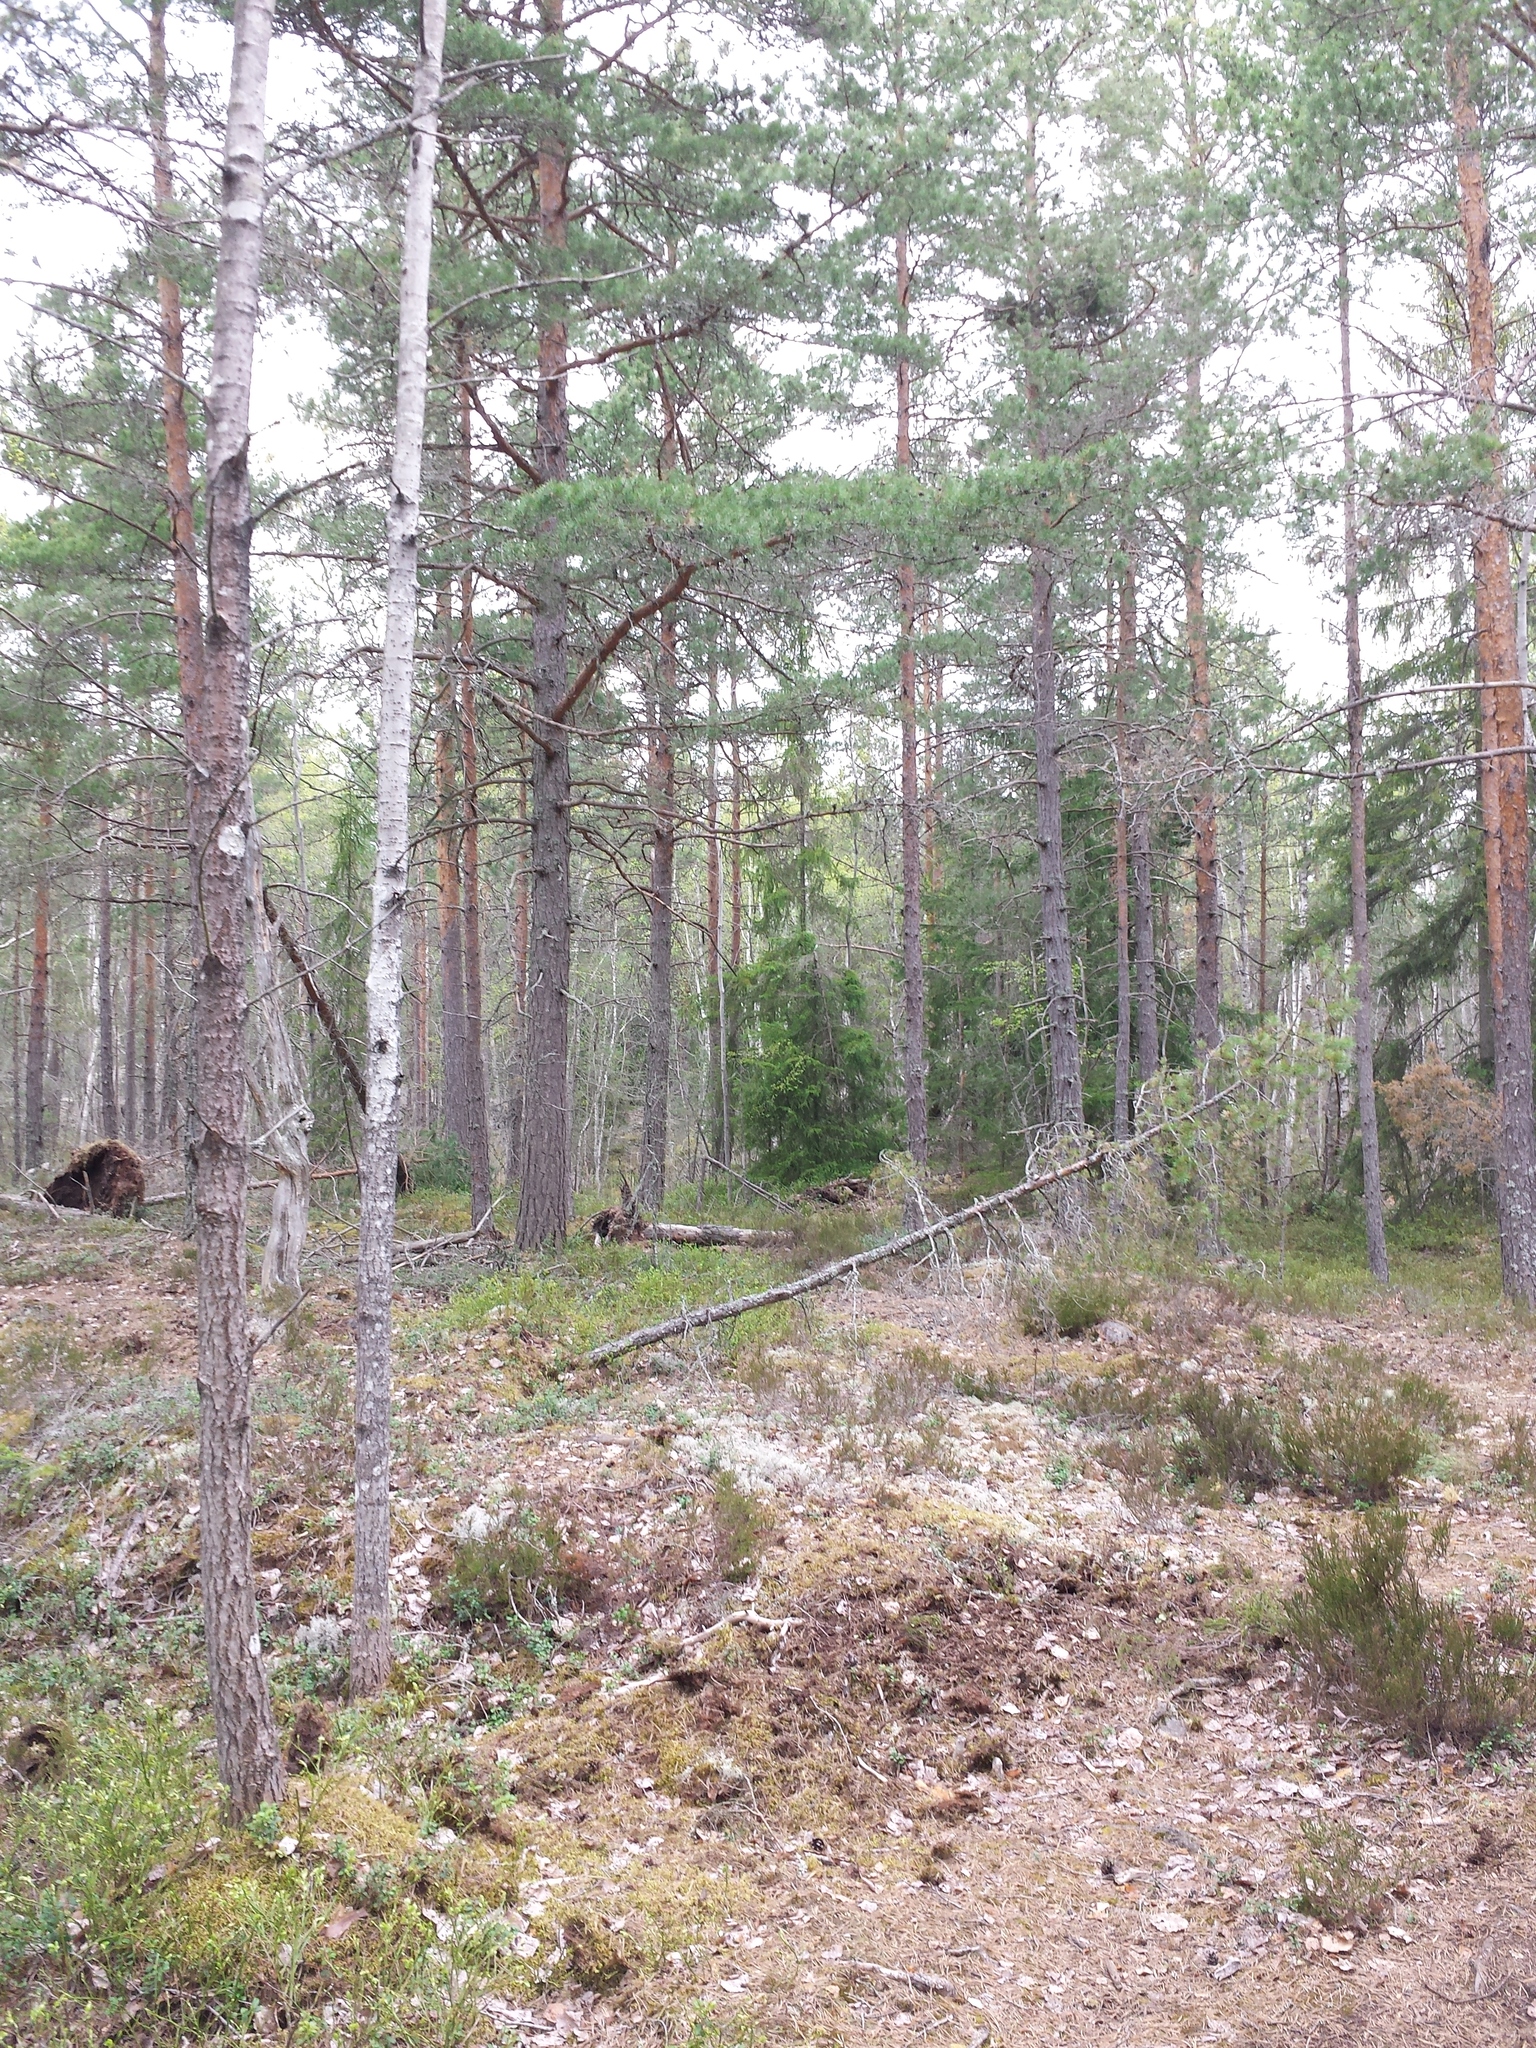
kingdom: Plantae
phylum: Tracheophyta
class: Pinopsida
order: Pinales
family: Pinaceae
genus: Pinus
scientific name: Pinus sylvestris
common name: Scots pine
